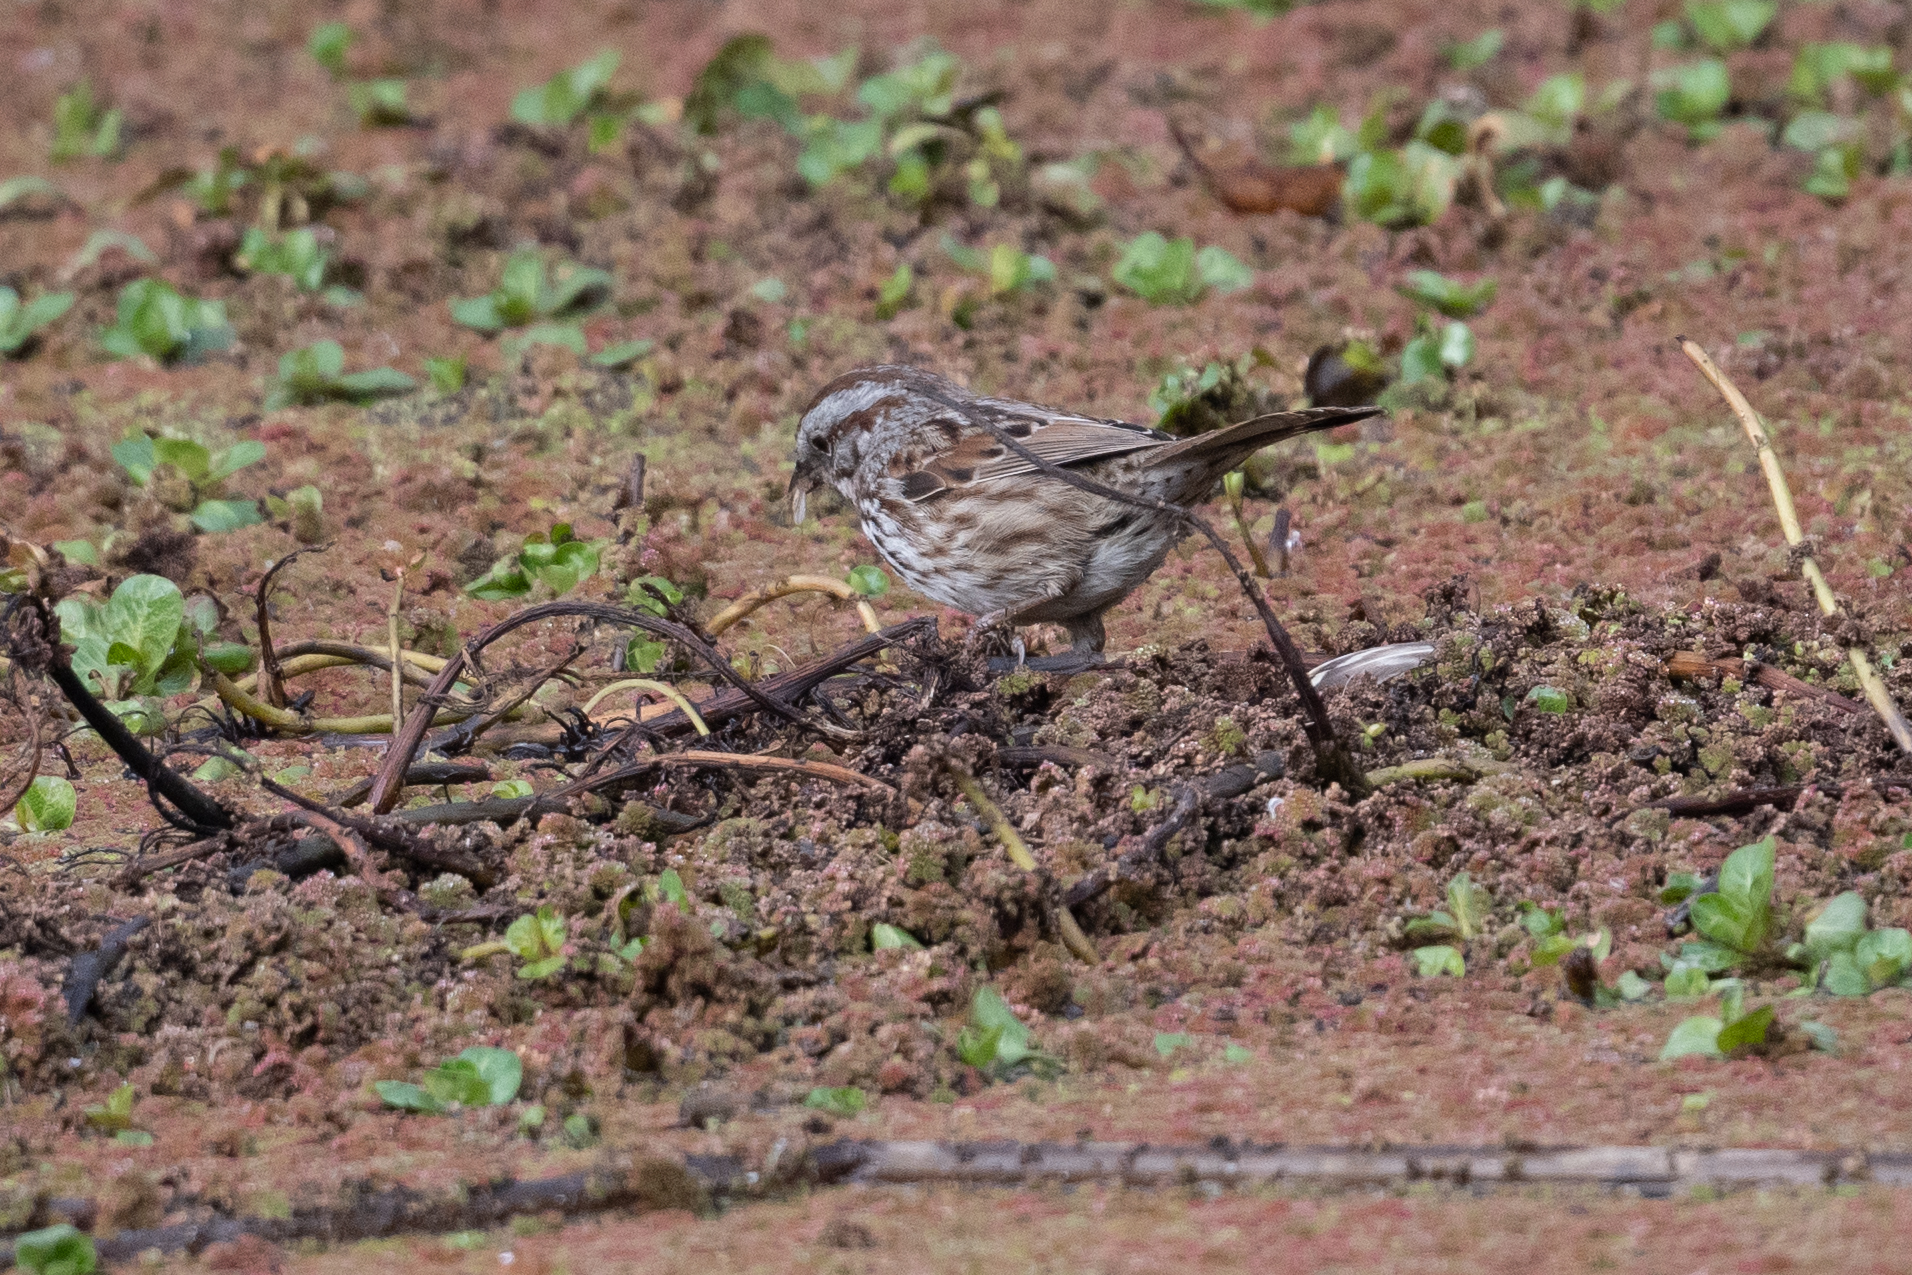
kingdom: Animalia
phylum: Chordata
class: Aves
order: Passeriformes
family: Passerellidae
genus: Melospiza
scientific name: Melospiza melodia
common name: Song sparrow
